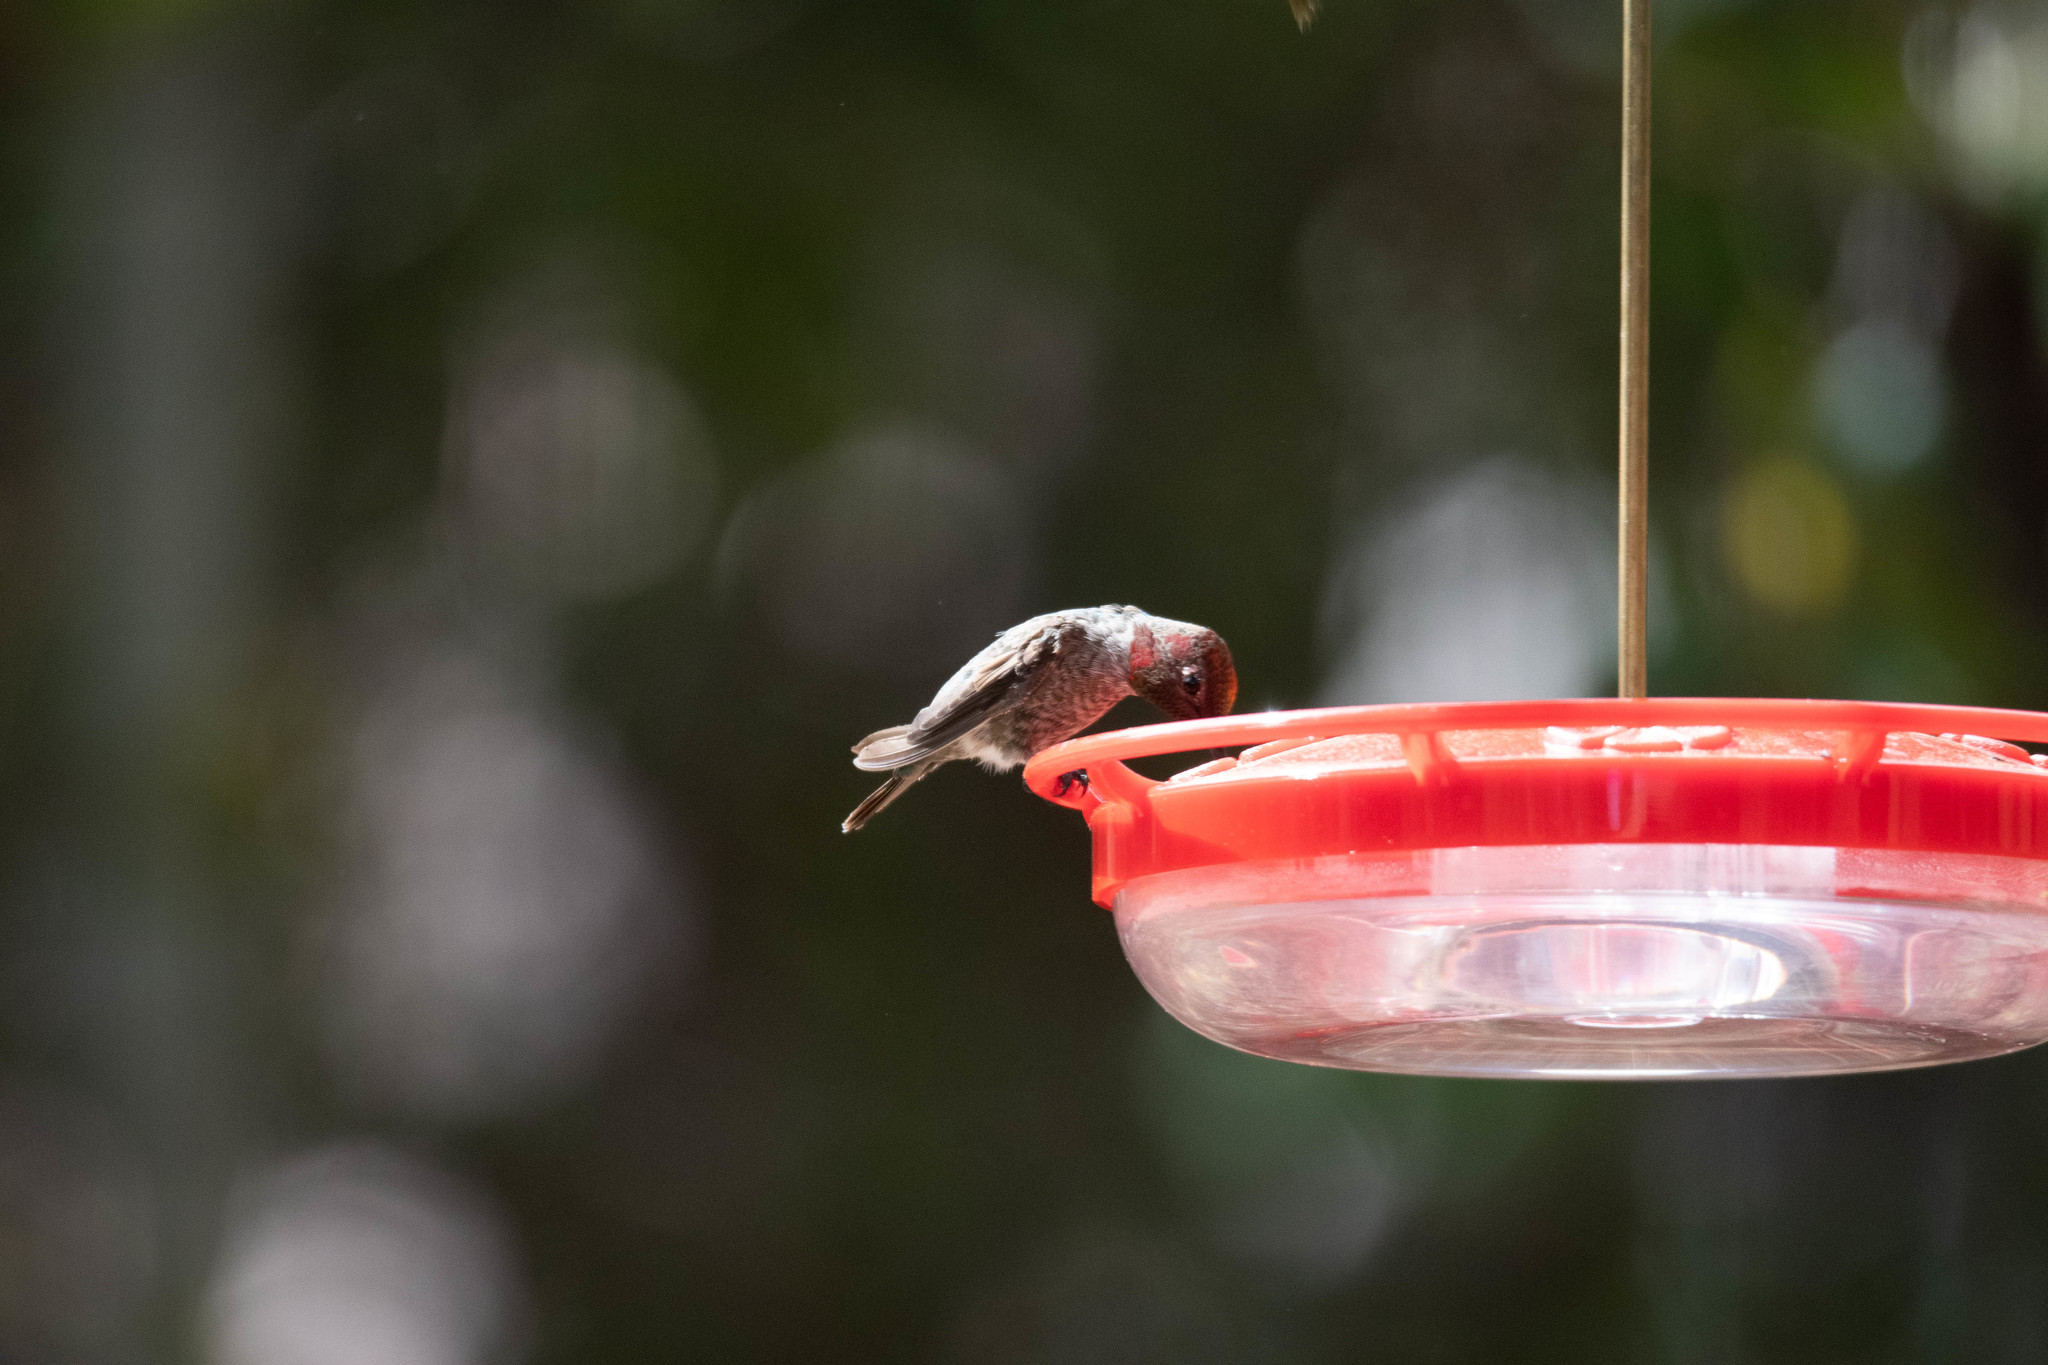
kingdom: Animalia
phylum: Chordata
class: Aves
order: Apodiformes
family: Trochilidae
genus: Calypte
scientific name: Calypte anna
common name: Anna's hummingbird
